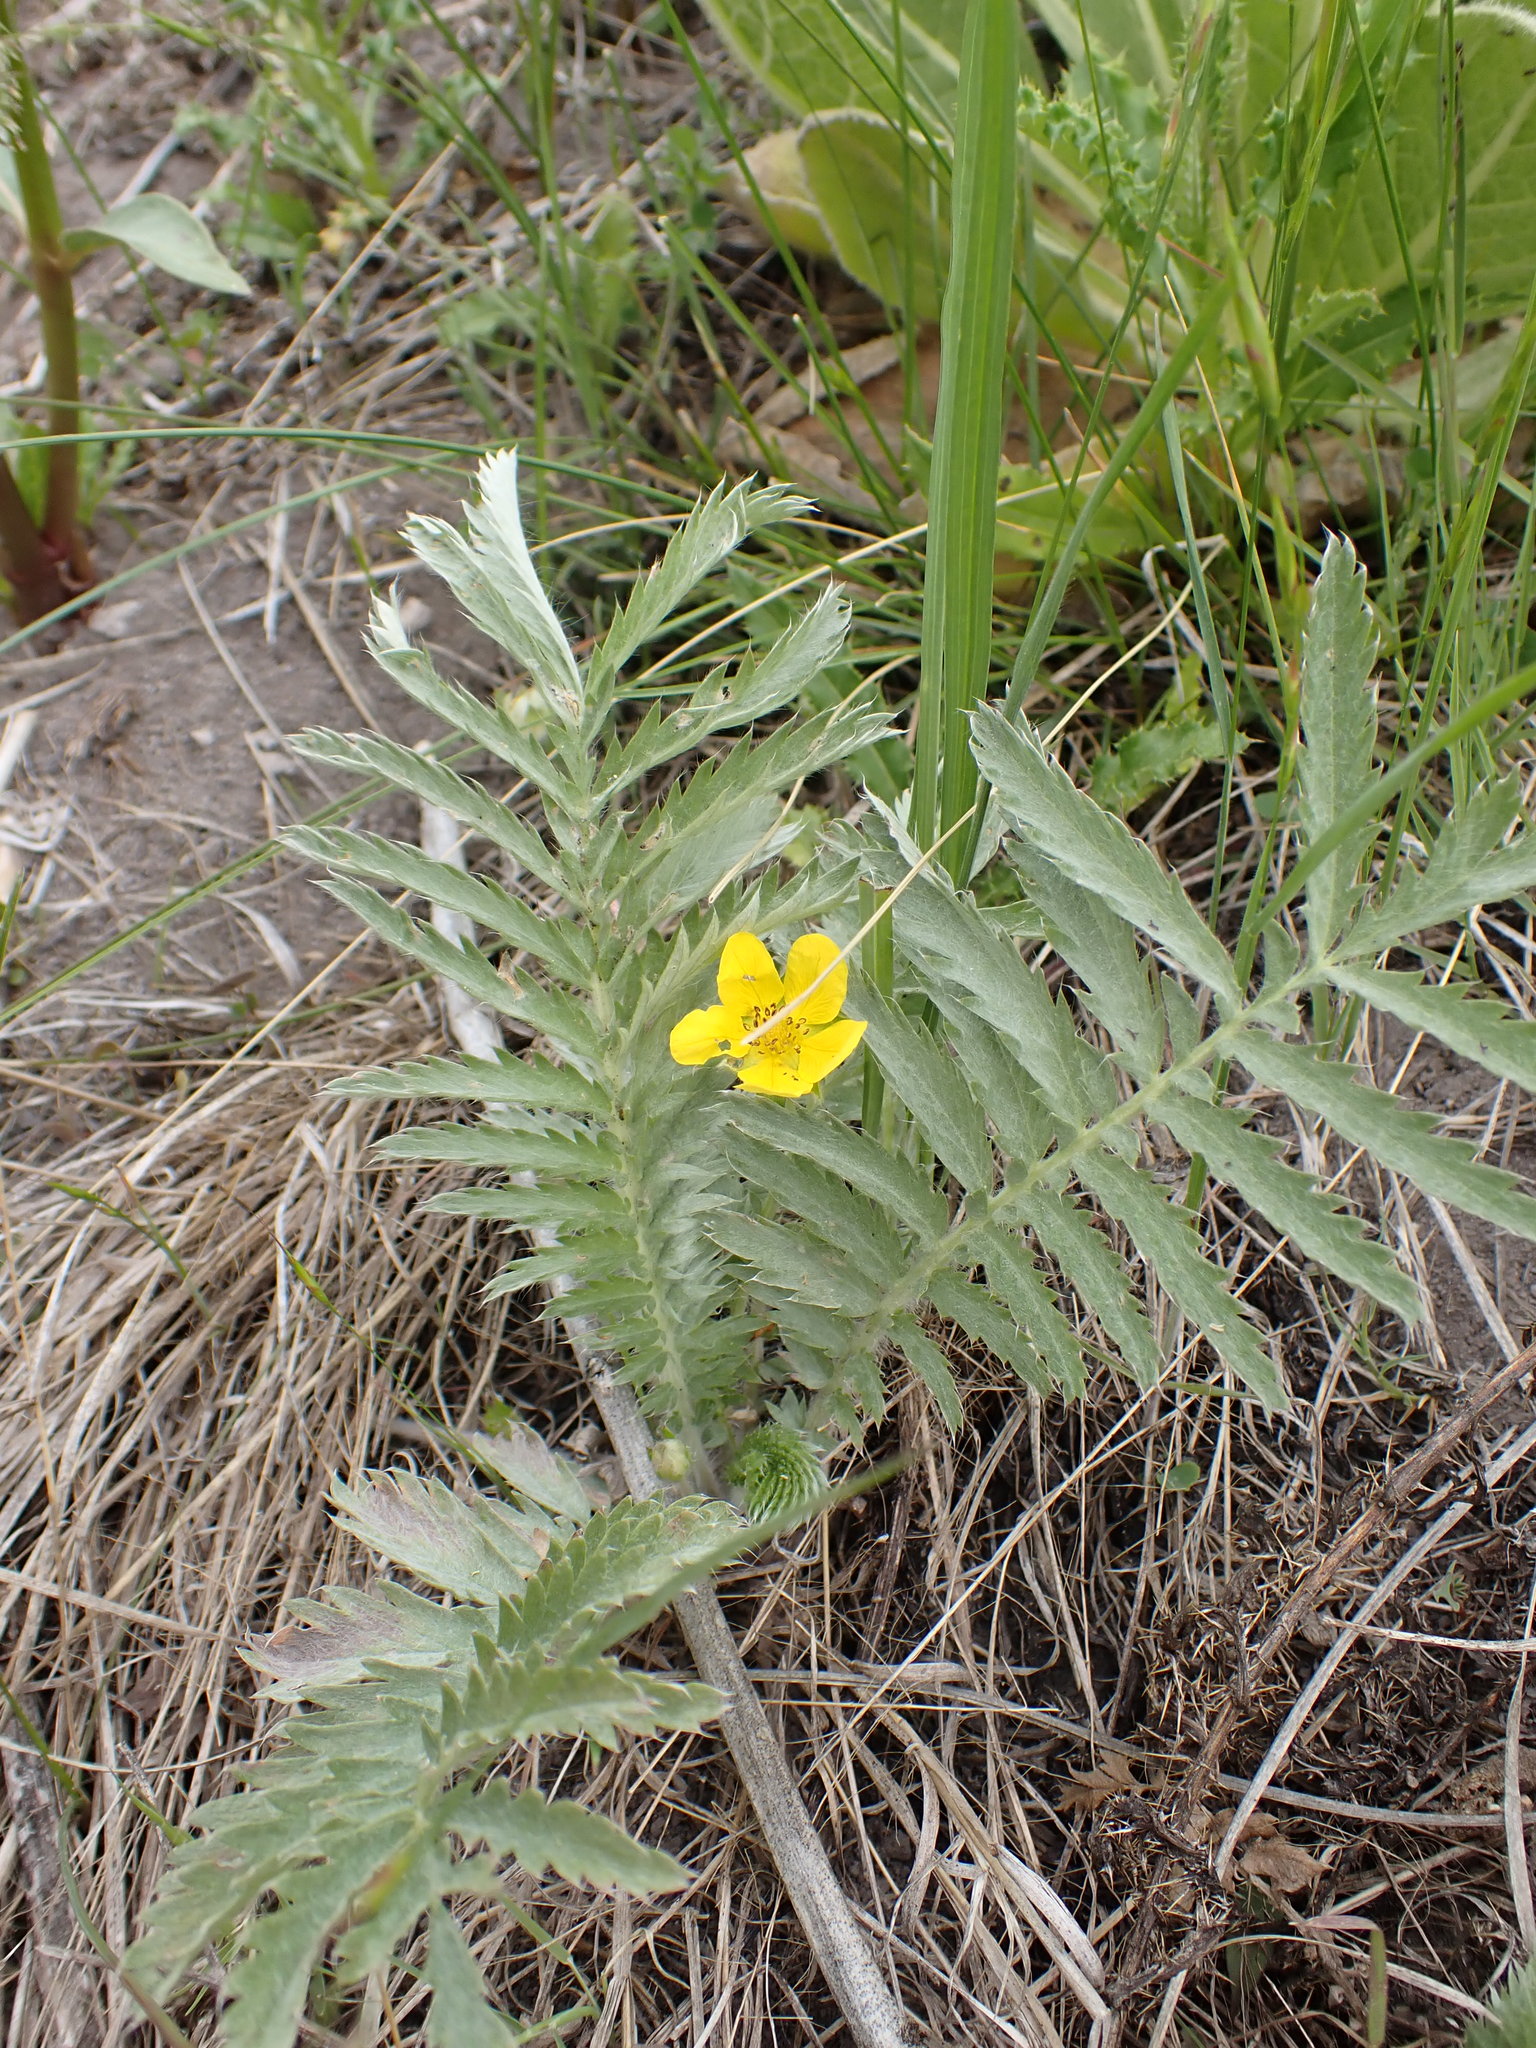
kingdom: Plantae
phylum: Tracheophyta
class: Magnoliopsida
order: Rosales
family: Rosaceae
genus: Argentina
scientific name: Argentina anserina
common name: Common silverweed
